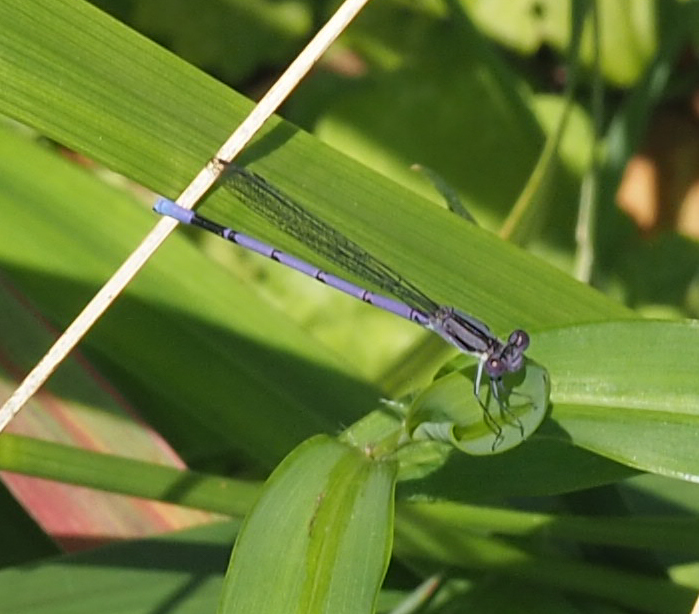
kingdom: Animalia
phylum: Arthropoda
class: Insecta
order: Odonata
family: Coenagrionidae
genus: Argia
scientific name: Argia fumipennis
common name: Variable dancer
